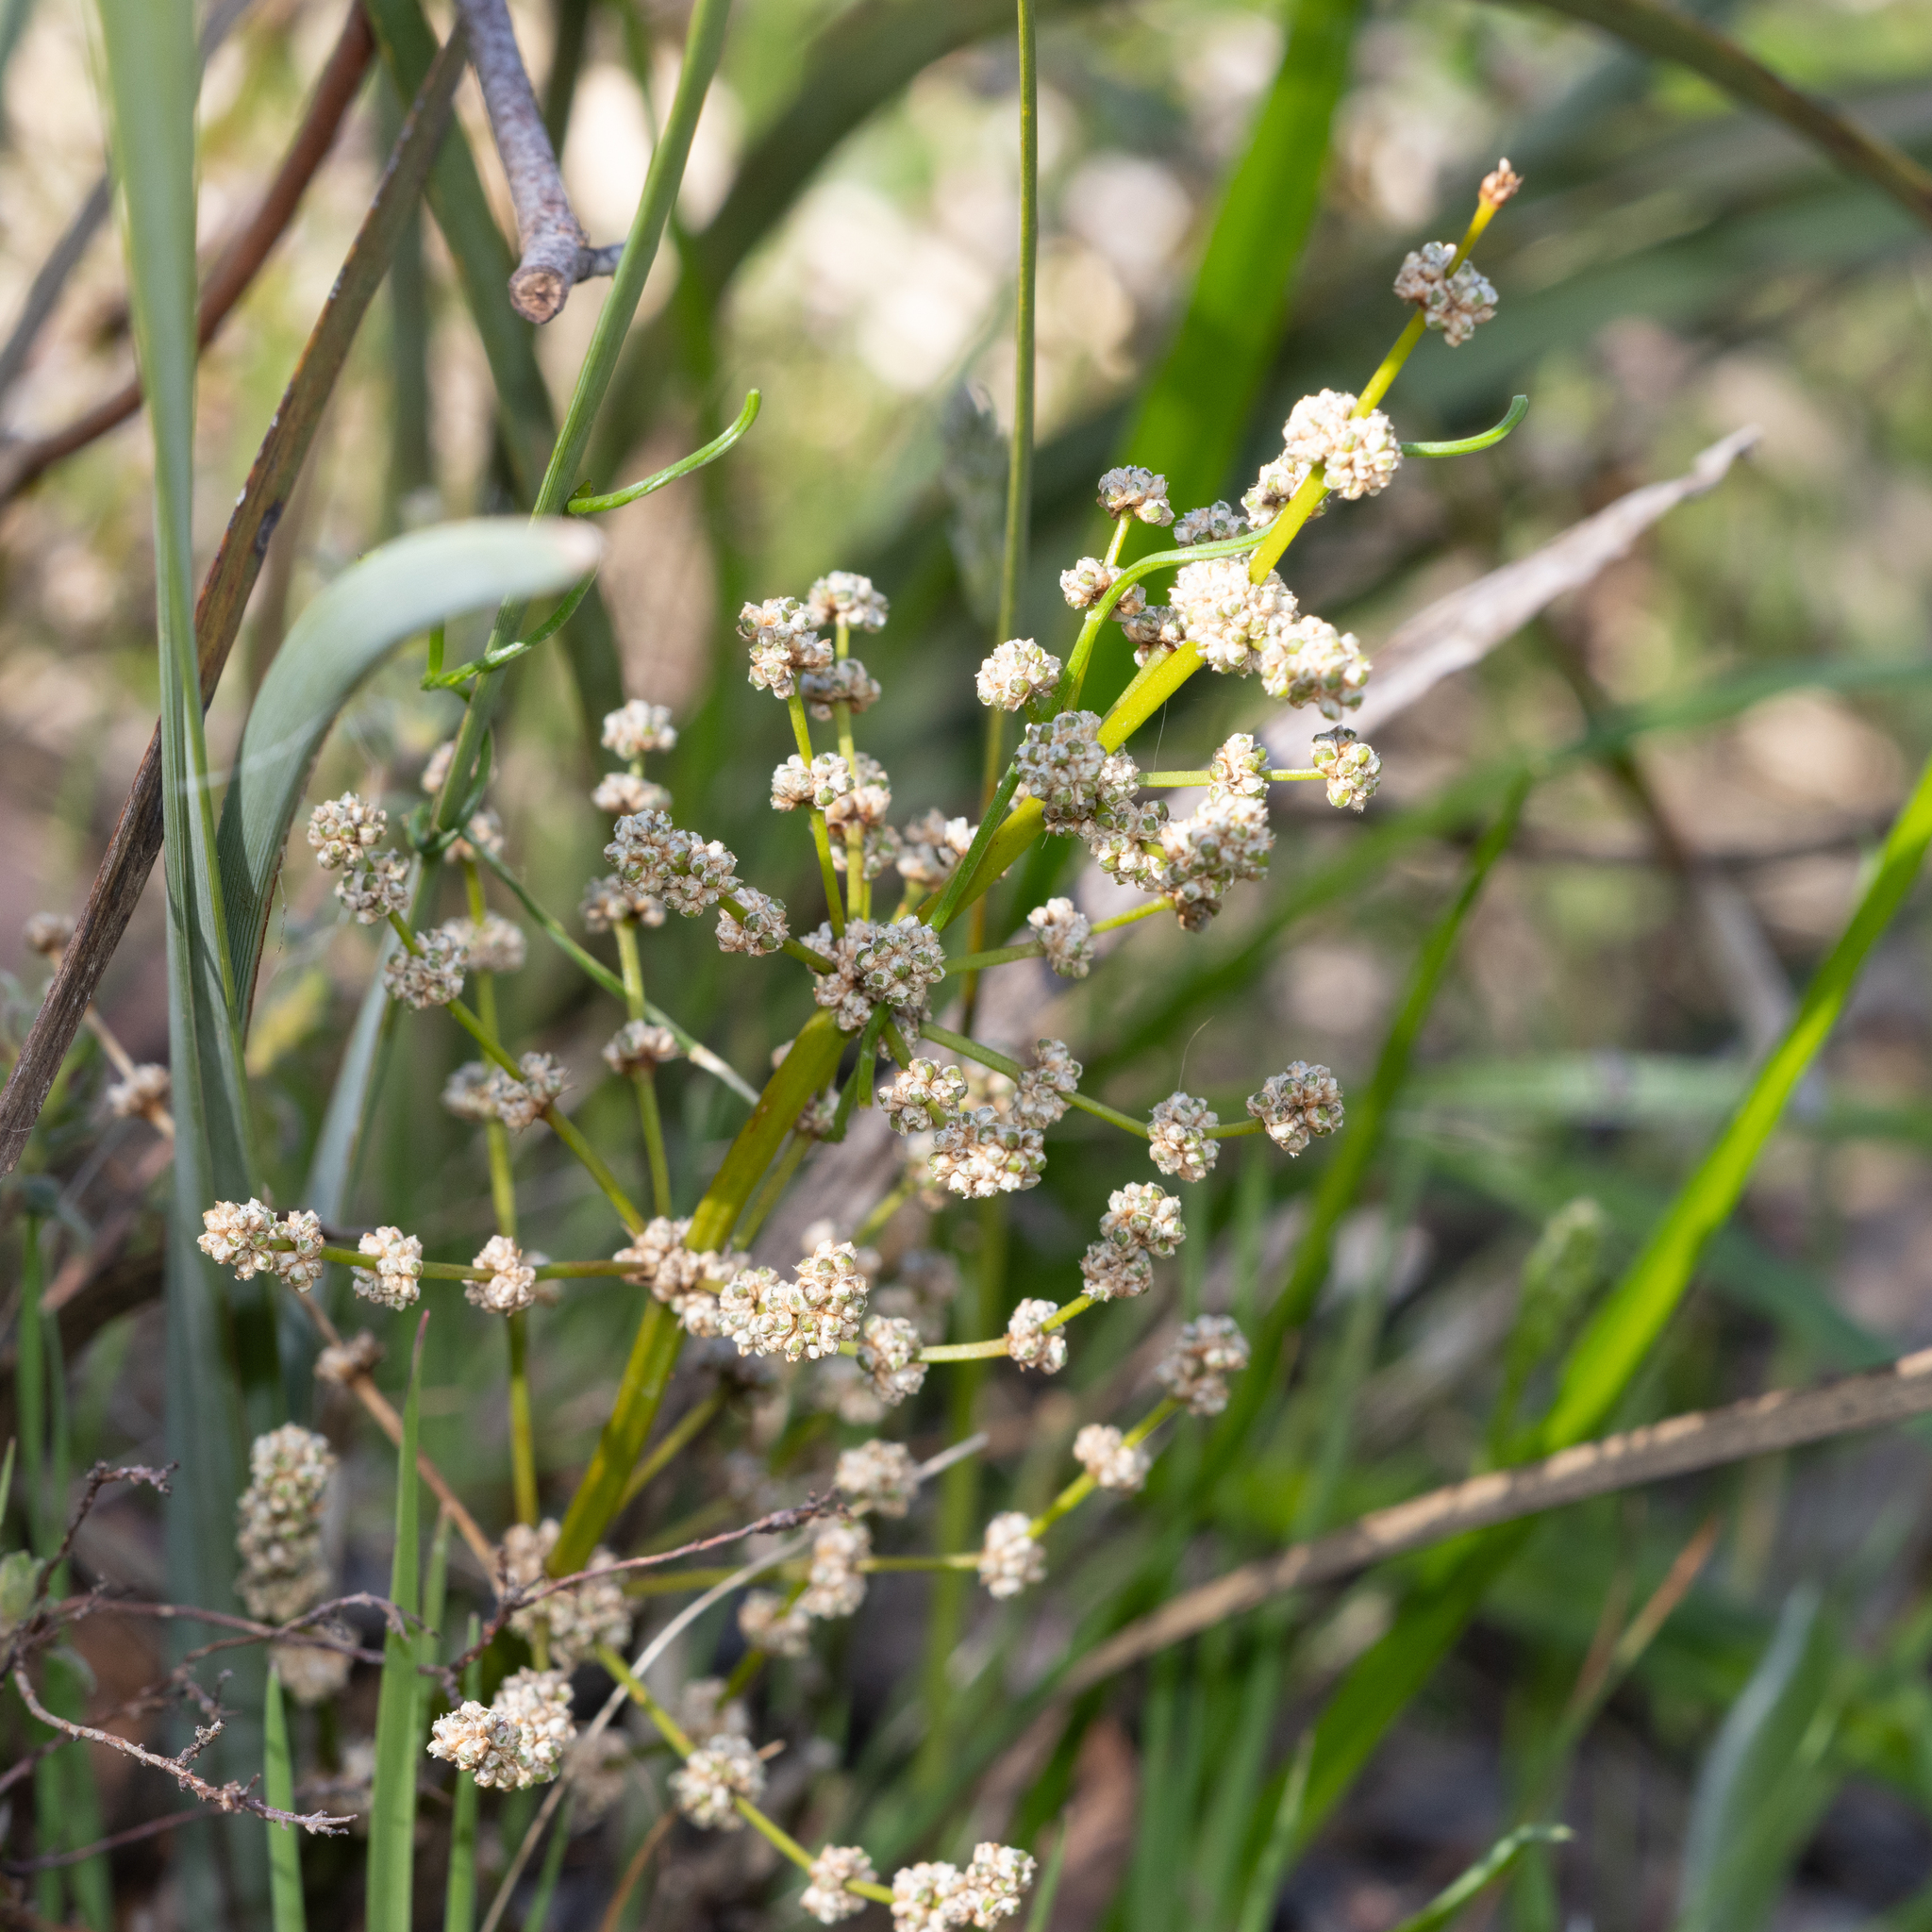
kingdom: Plantae
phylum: Tracheophyta
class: Liliopsida
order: Asparagales
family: Asparagaceae
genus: Lomandra
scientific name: Lomandra multiflora
